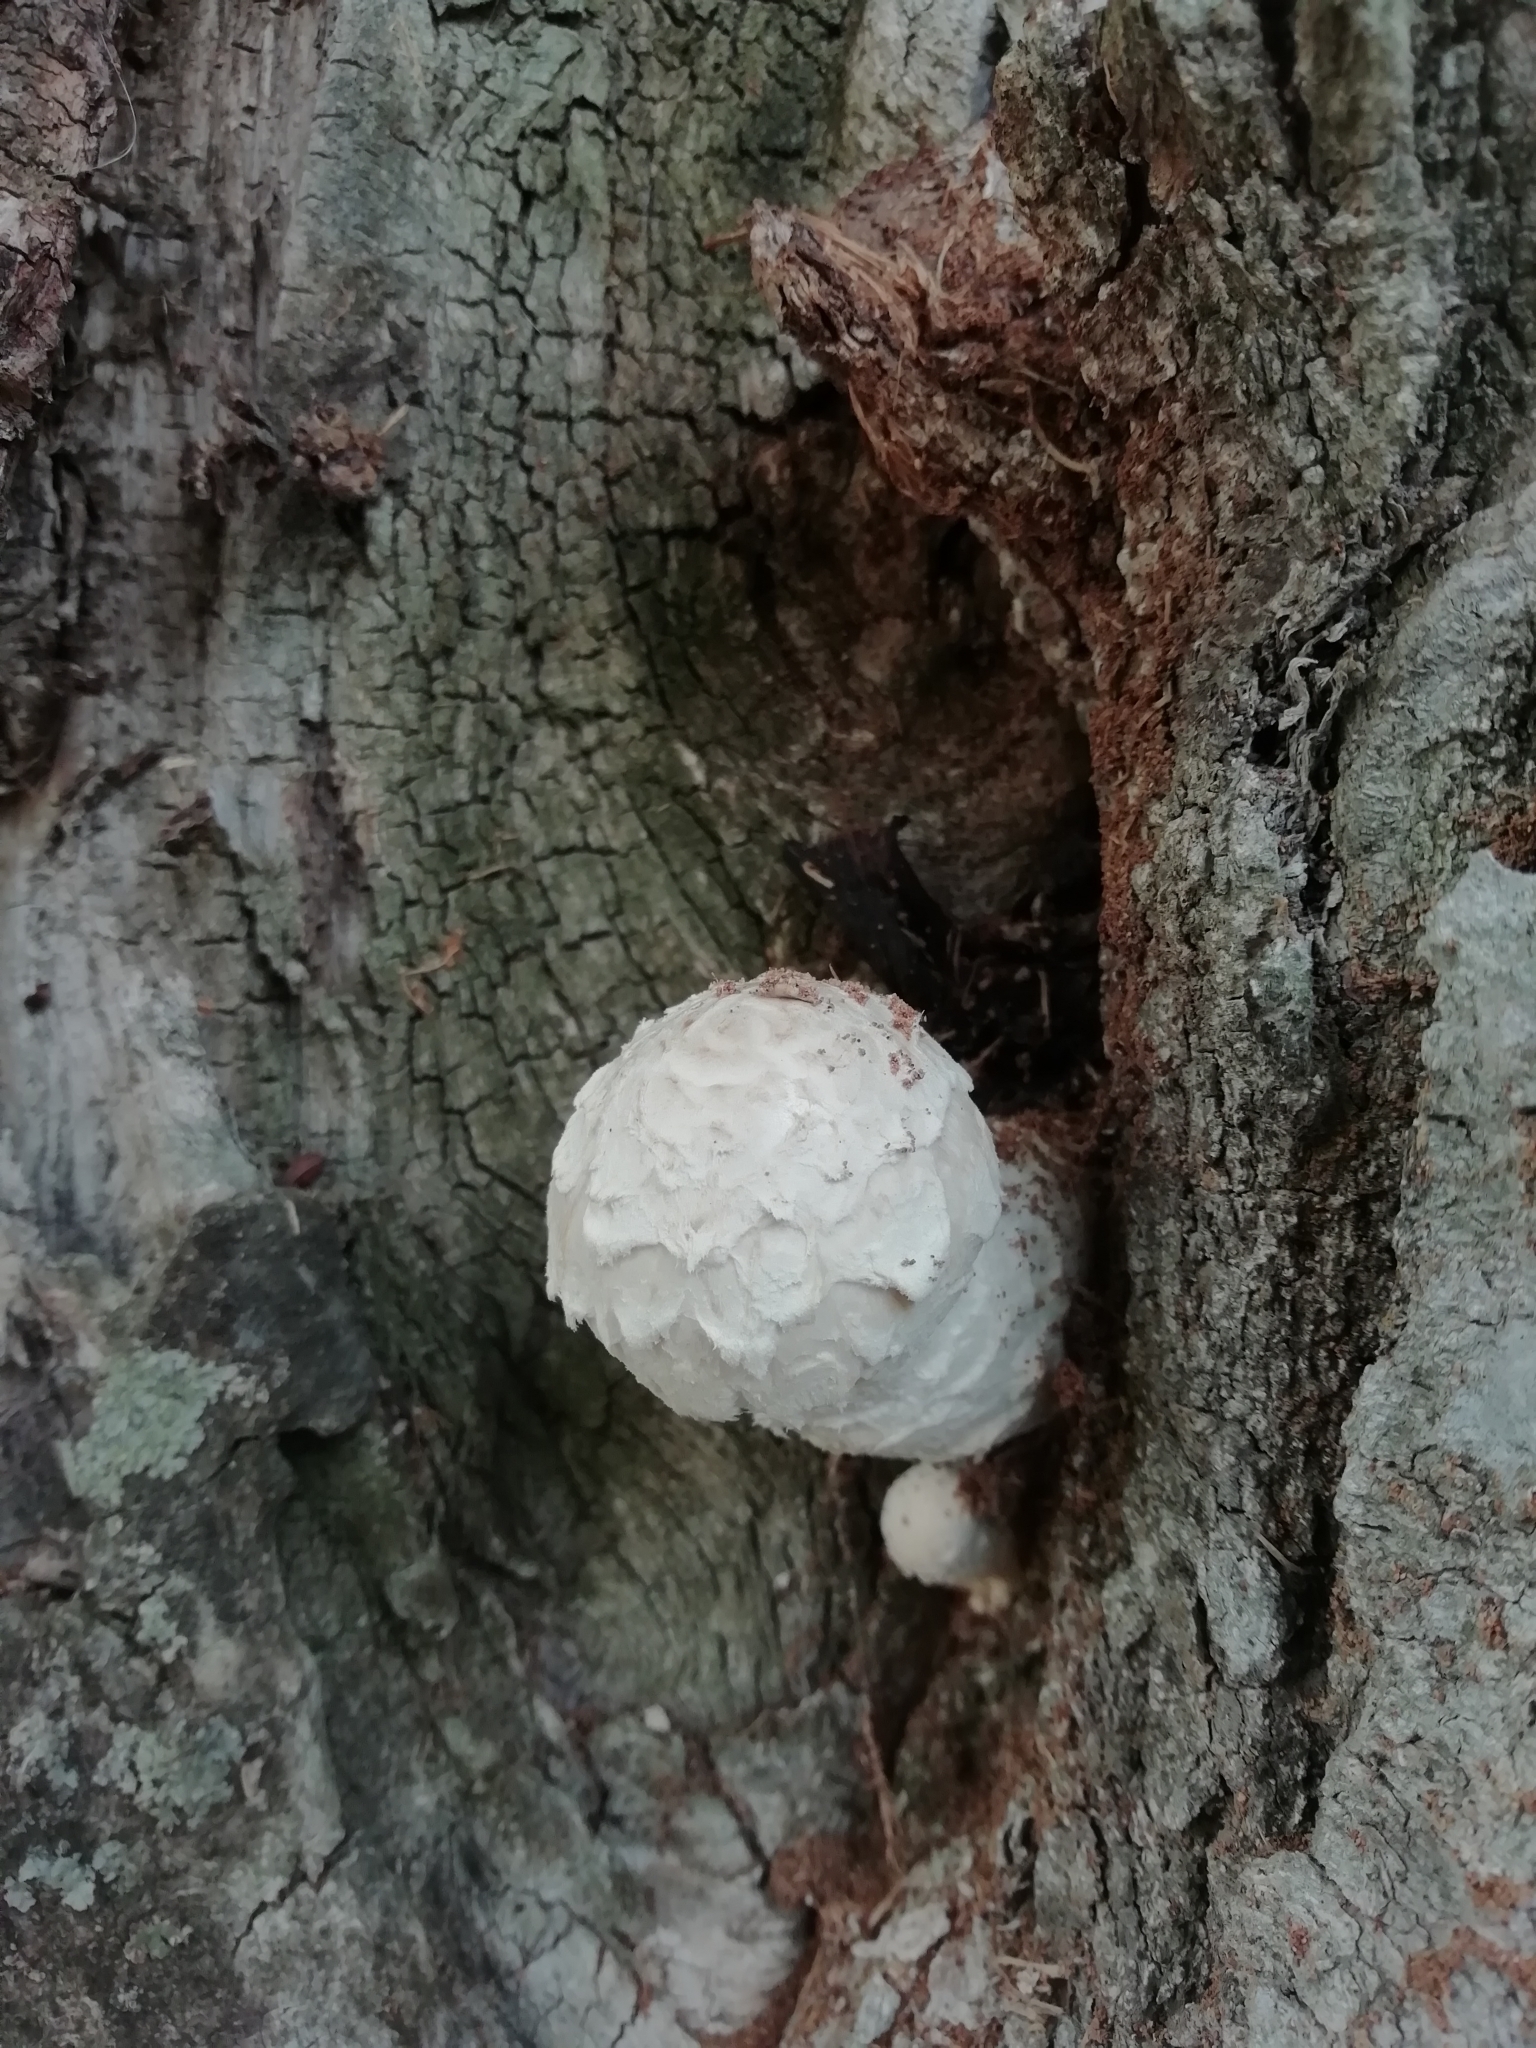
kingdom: Fungi
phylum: Basidiomycota
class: Agaricomycetes
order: Agaricales
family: Strophariaceae
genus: Pholiota
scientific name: Pholiota populnea
